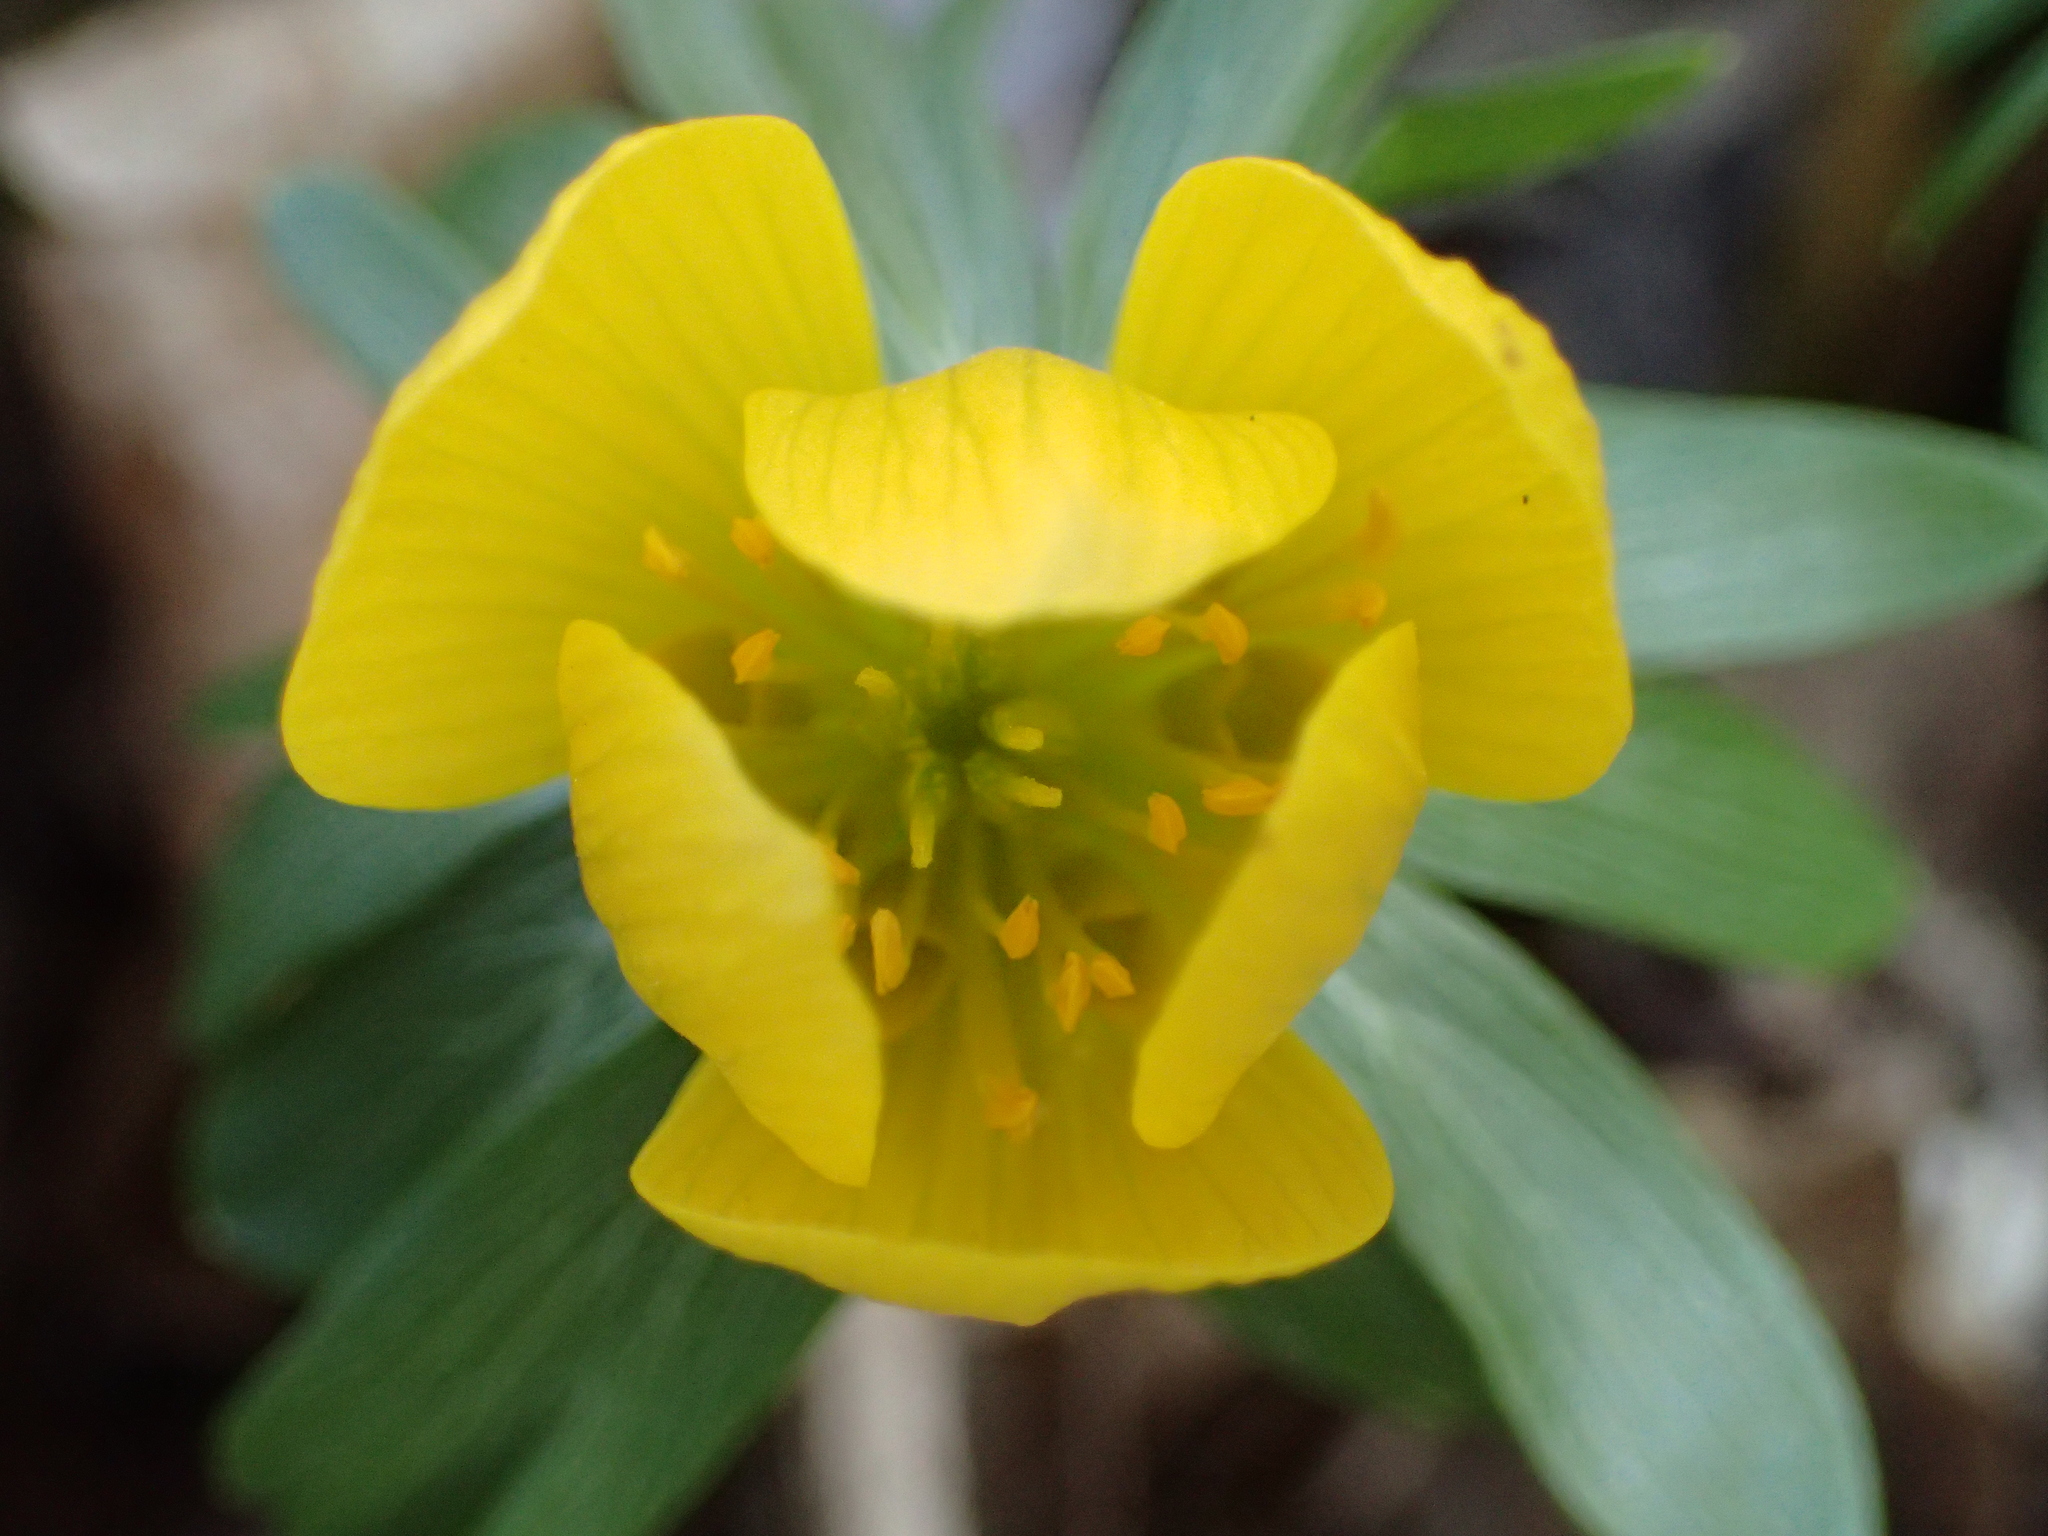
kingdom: Plantae
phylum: Tracheophyta
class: Magnoliopsida
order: Ranunculales
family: Ranunculaceae
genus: Eranthis
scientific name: Eranthis hyemalis
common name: Winter aconite
